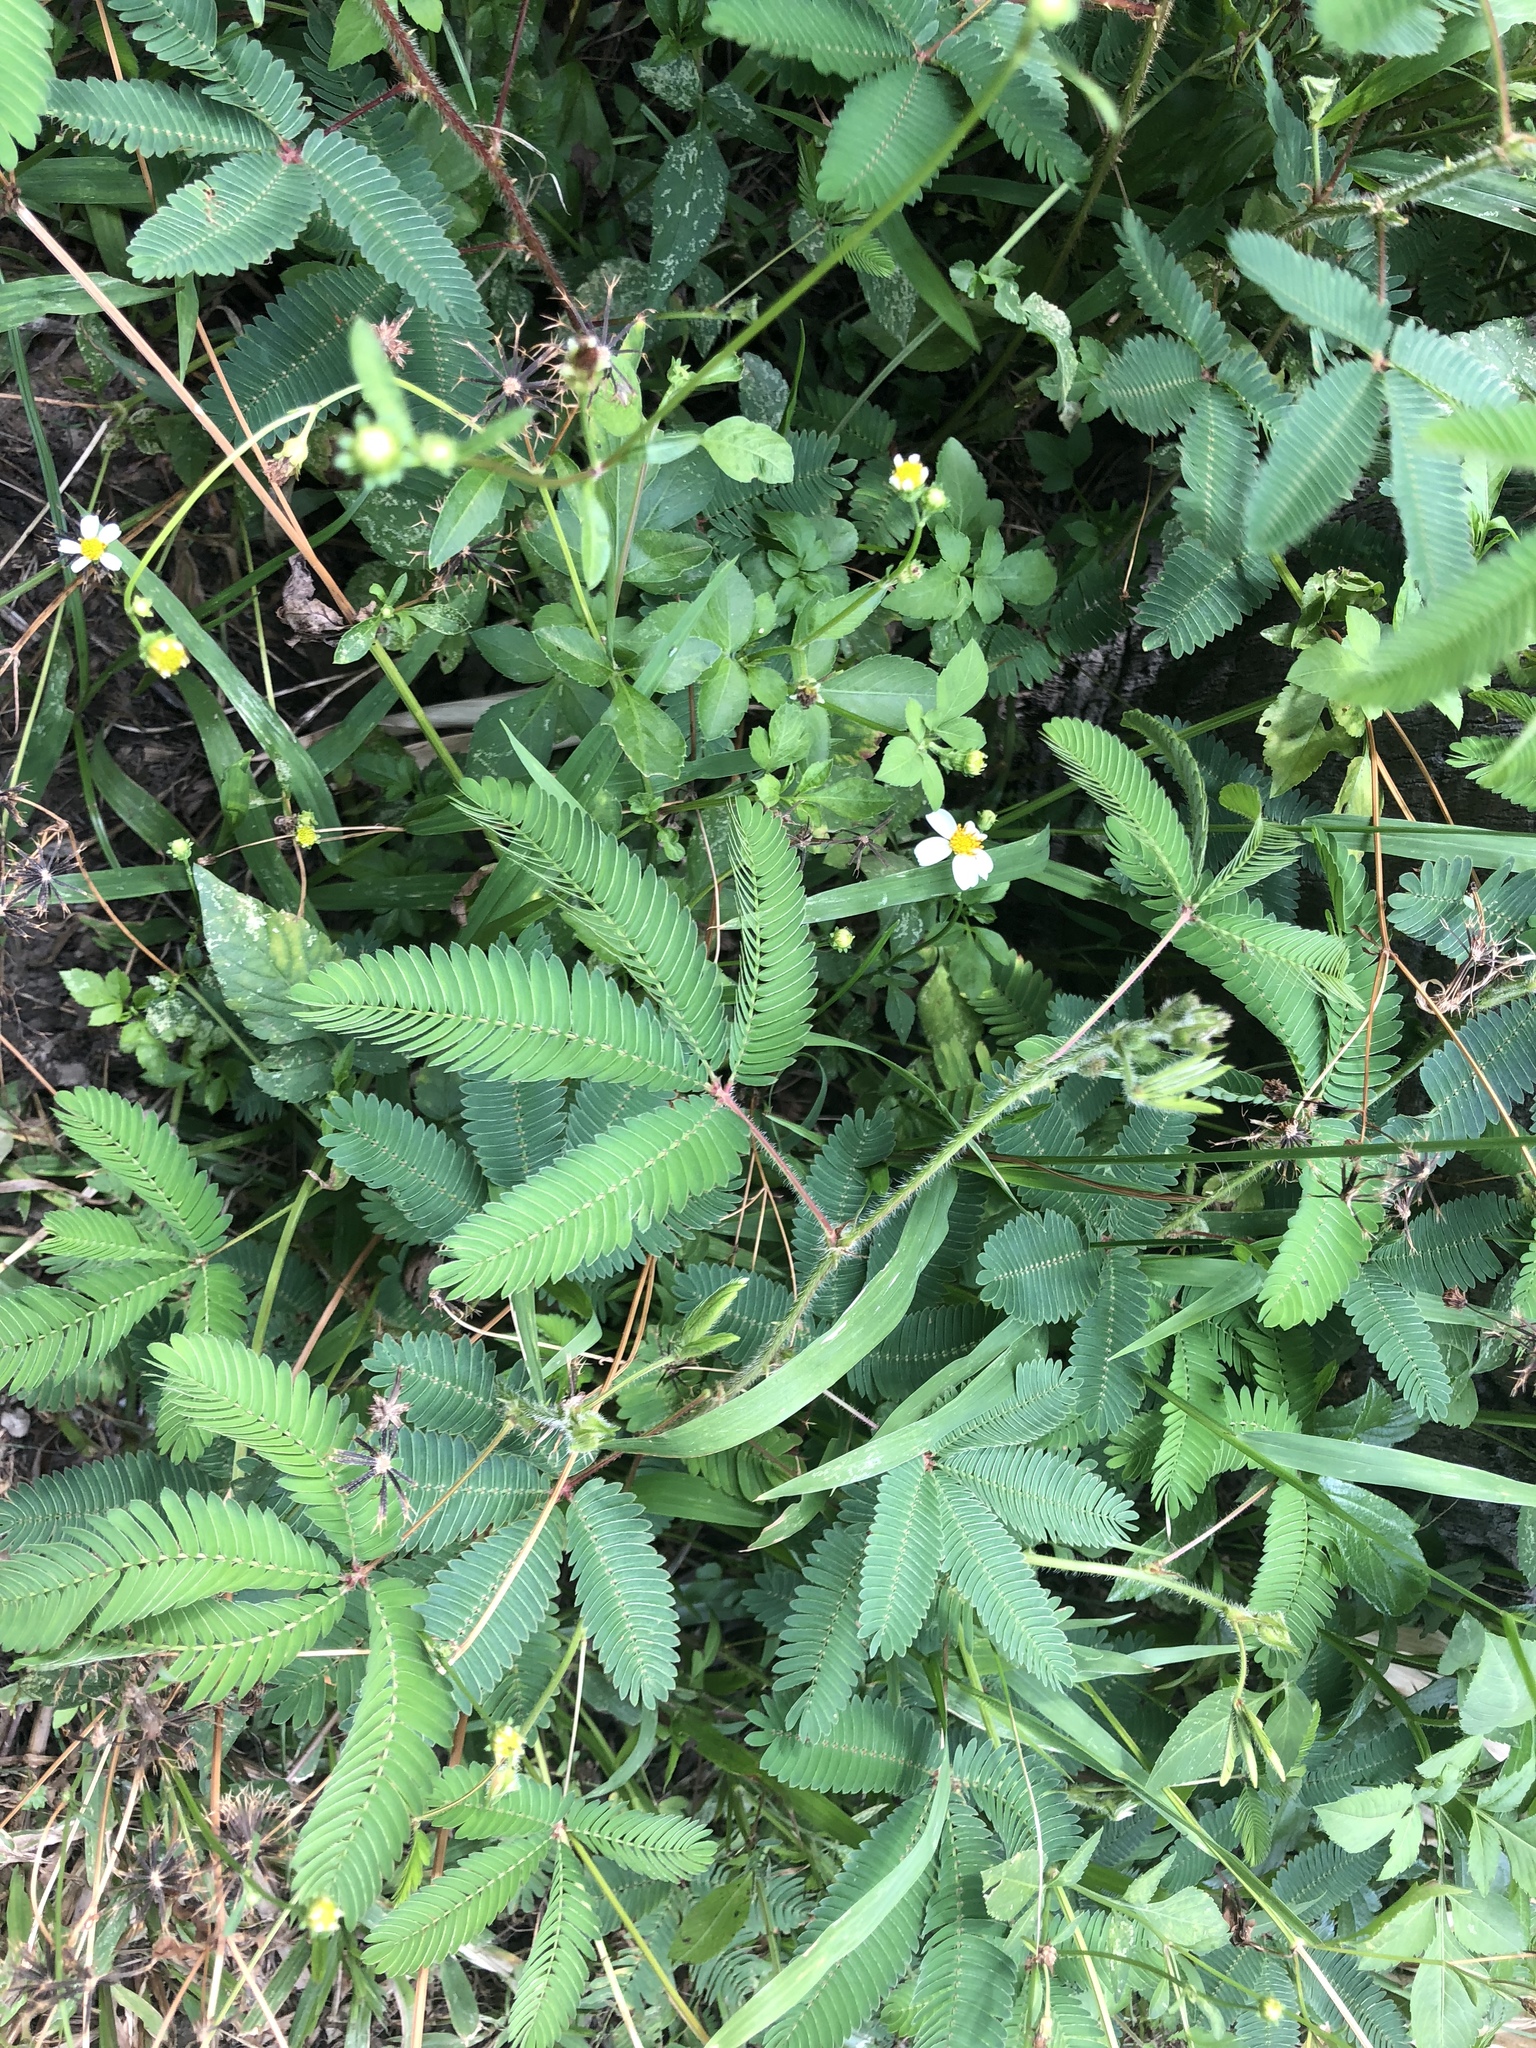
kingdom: Plantae
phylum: Tracheophyta
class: Magnoliopsida
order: Fabales
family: Fabaceae
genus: Mimosa
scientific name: Mimosa pudica
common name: Sensitive plant
